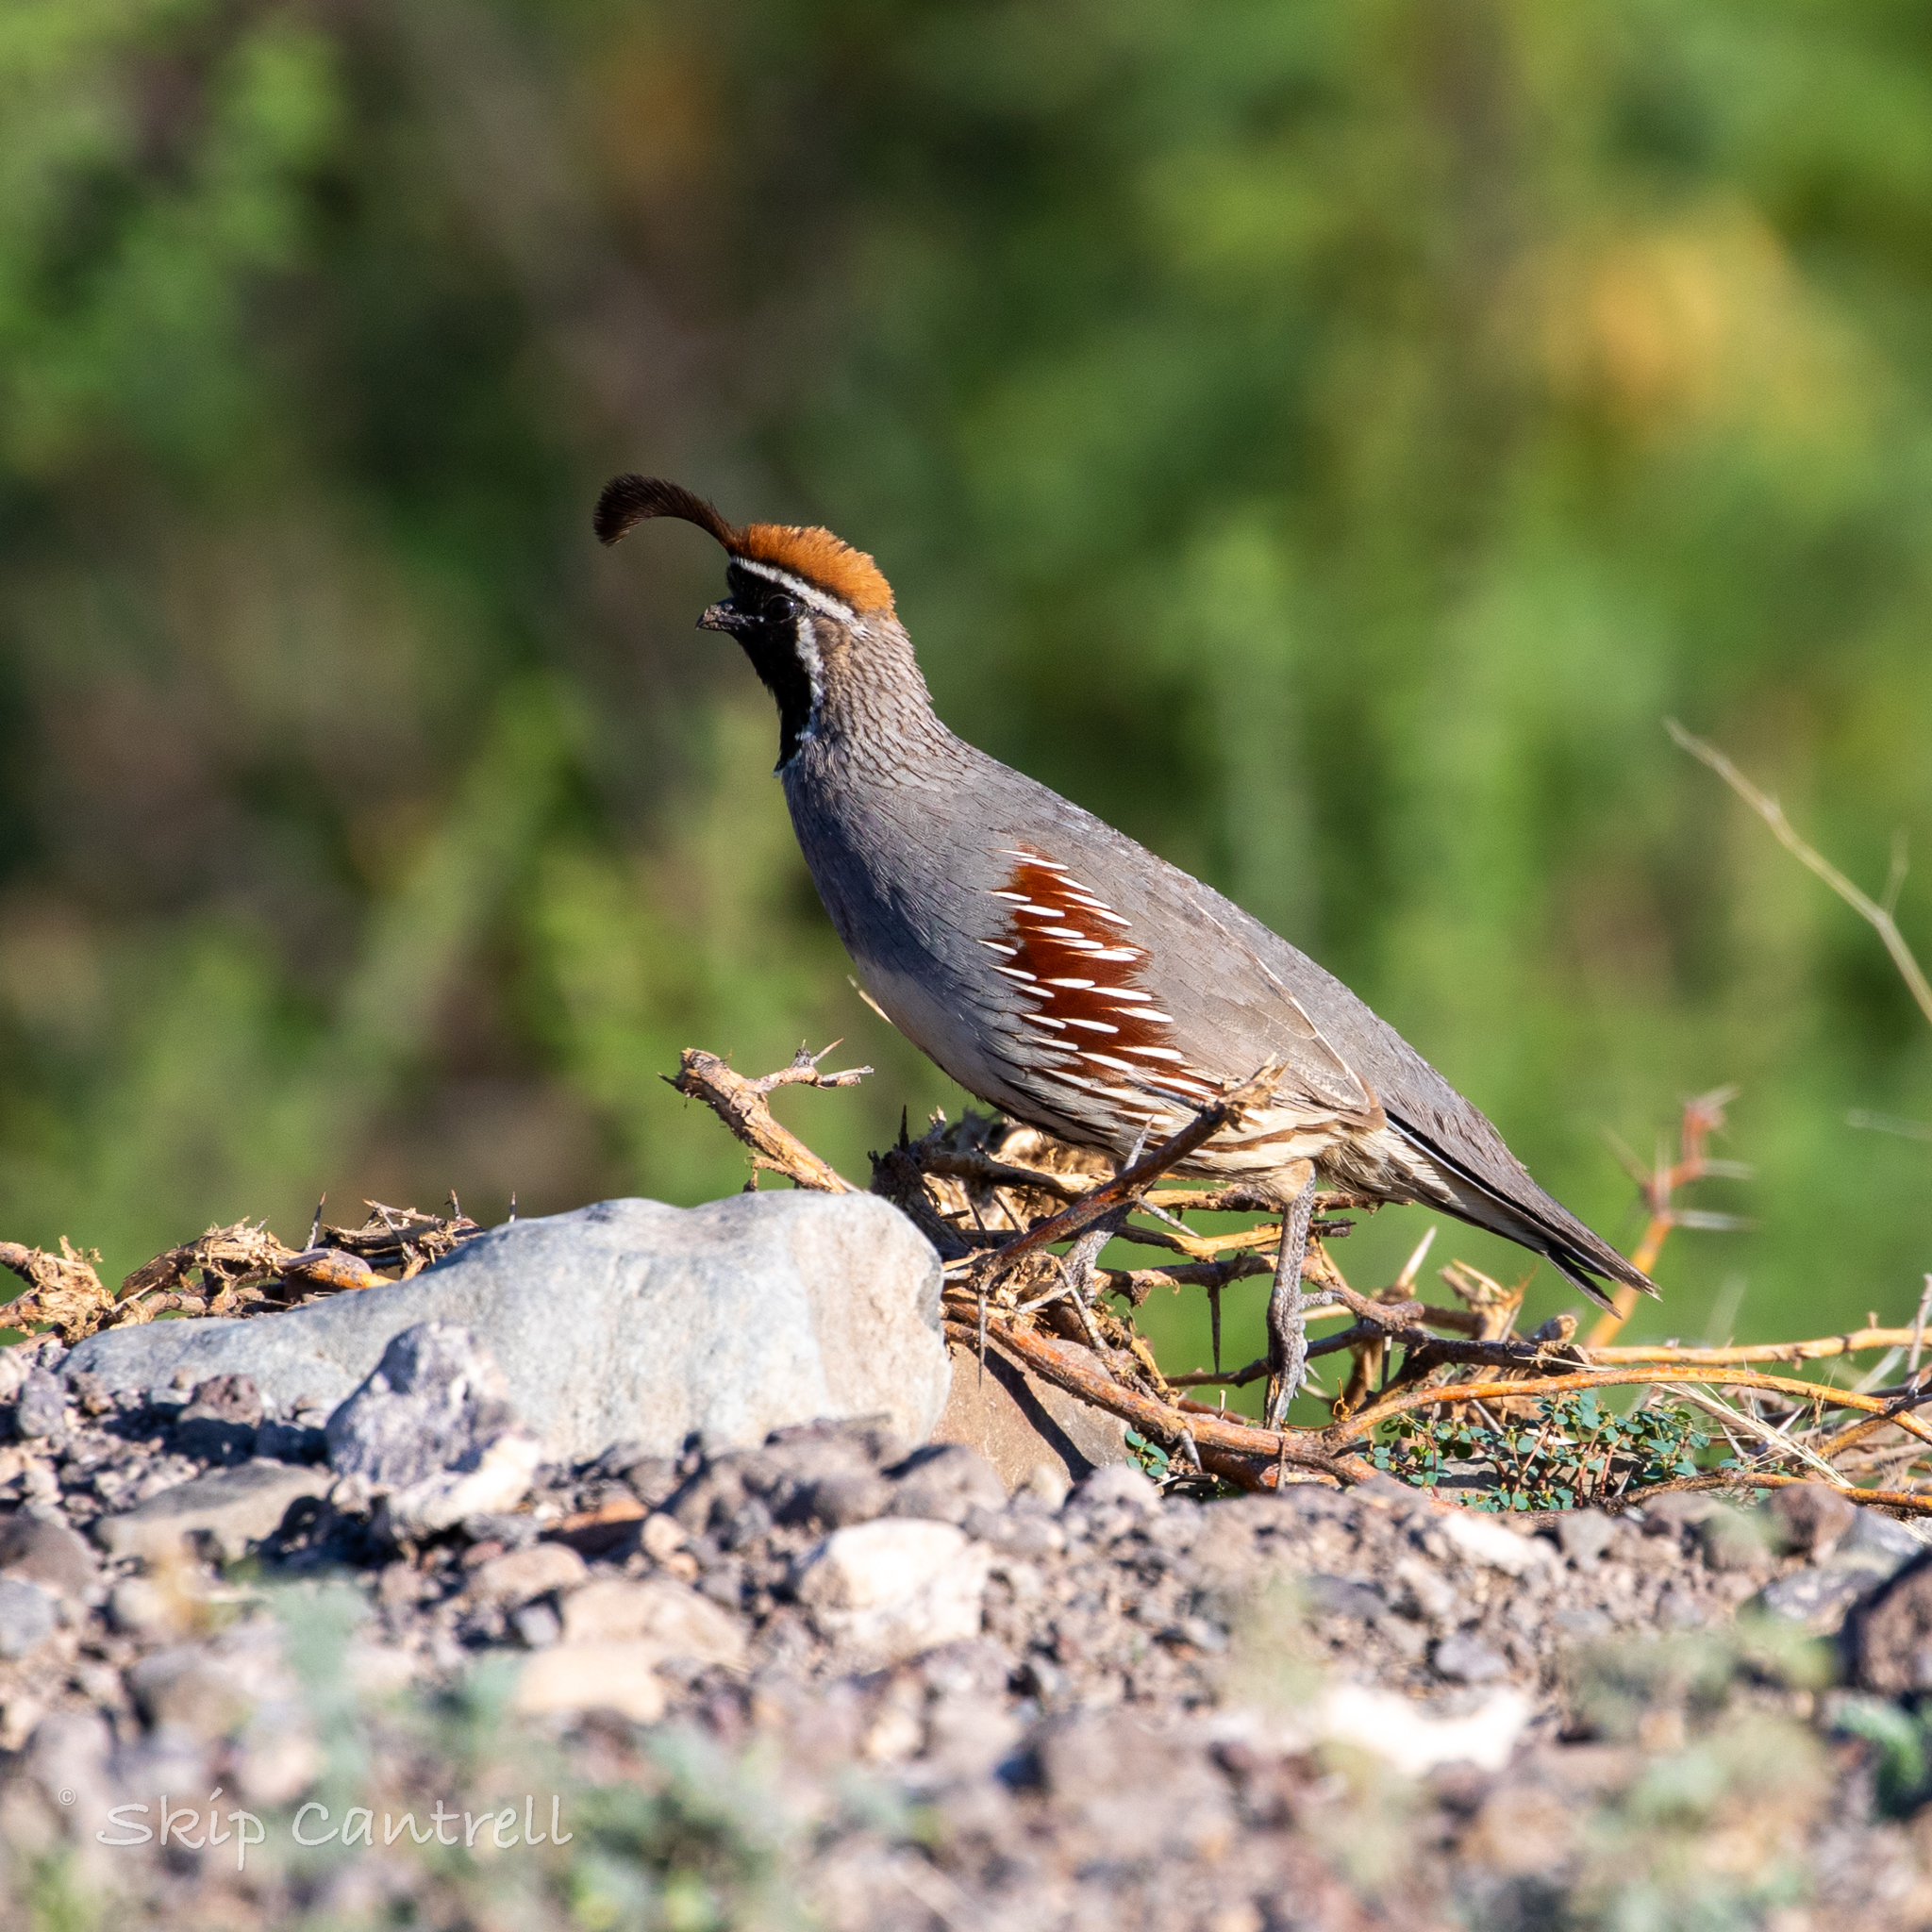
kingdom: Animalia
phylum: Chordata
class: Aves
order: Galliformes
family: Odontophoridae
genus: Callipepla
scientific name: Callipepla gambelii
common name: Gambel's quail
